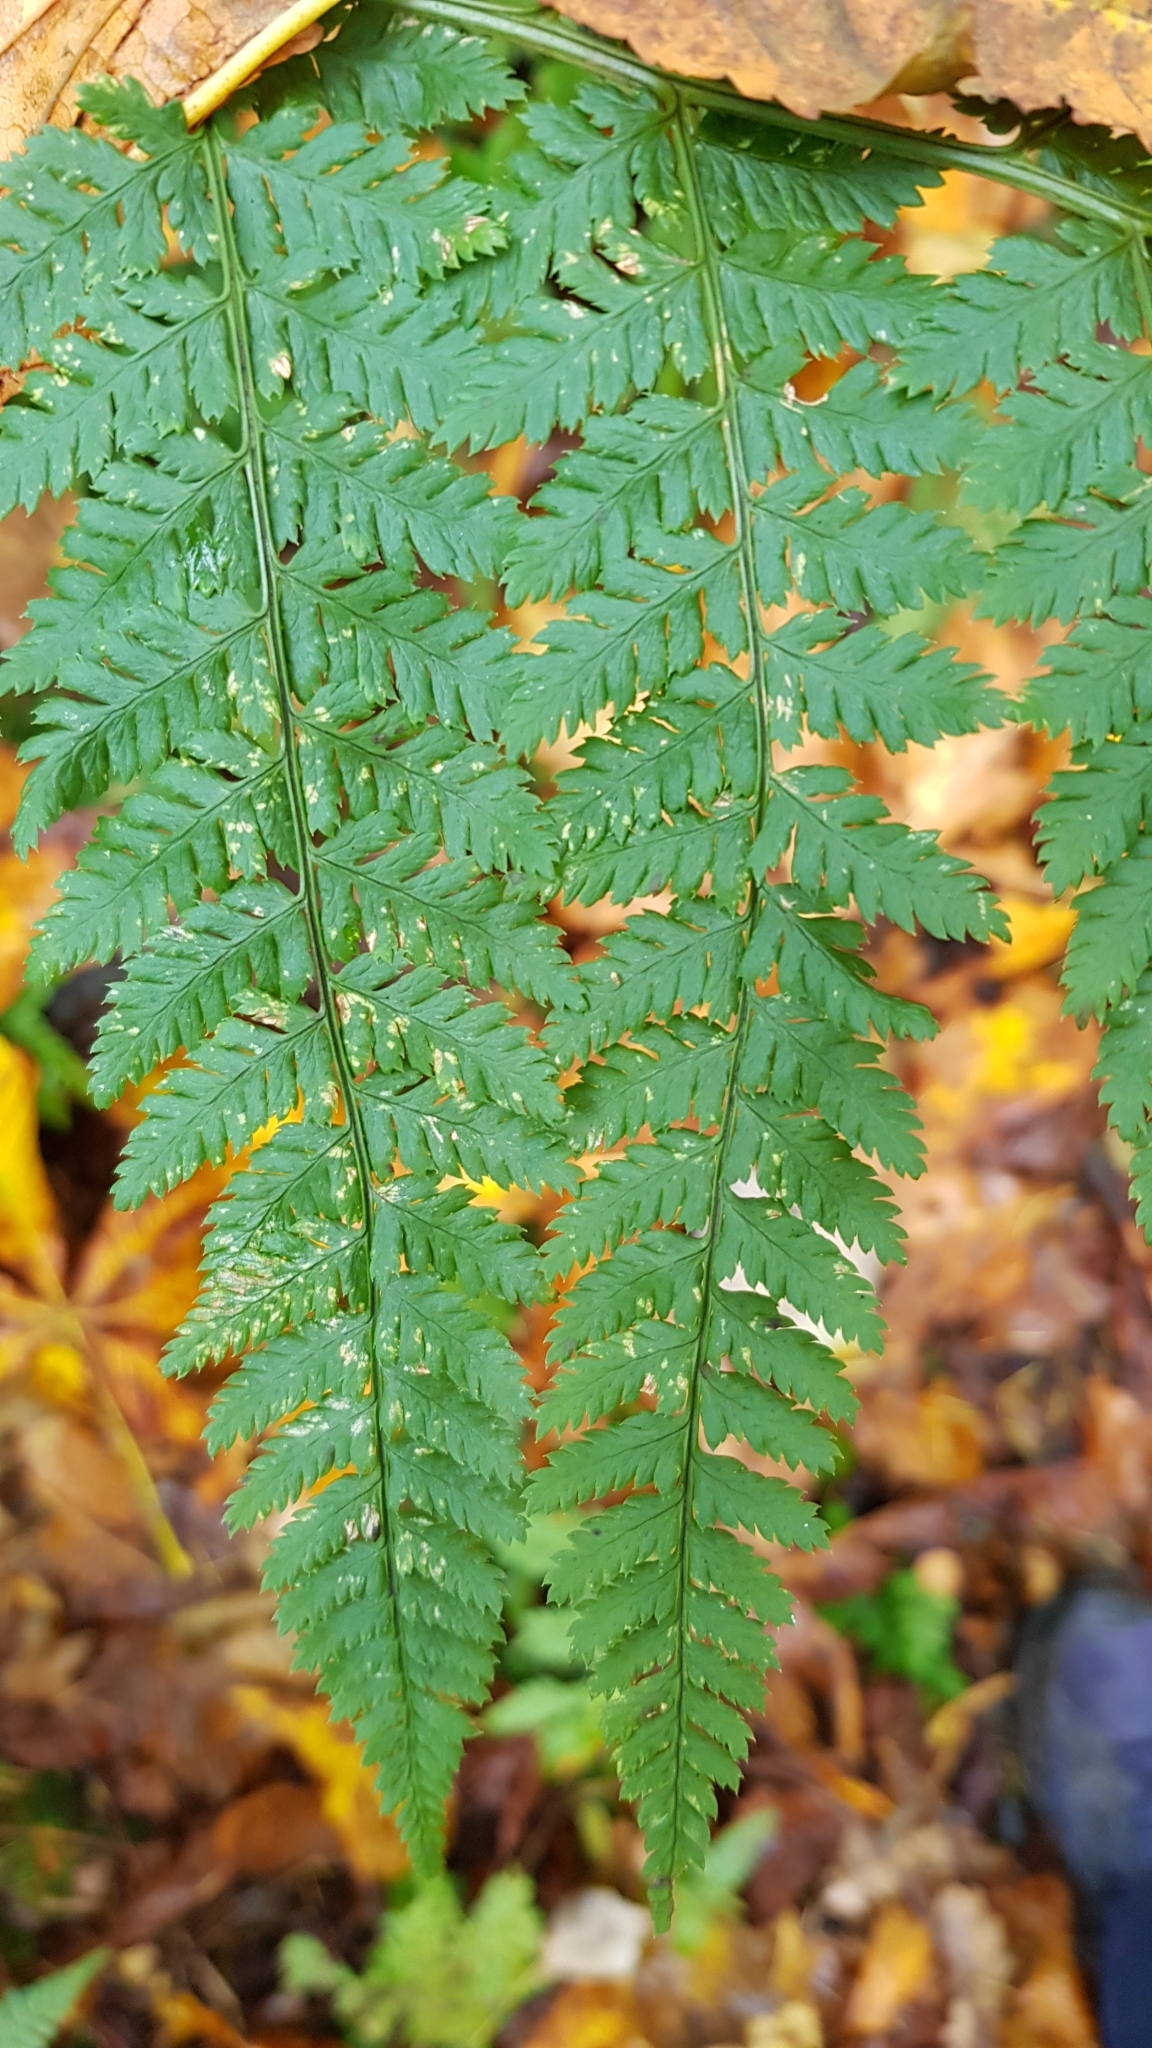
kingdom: Plantae
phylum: Tracheophyta
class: Polypodiopsida
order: Polypodiales
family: Dryopteridaceae
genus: Dryopteris
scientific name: Dryopteris dilatata
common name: Broad buckler-fern
